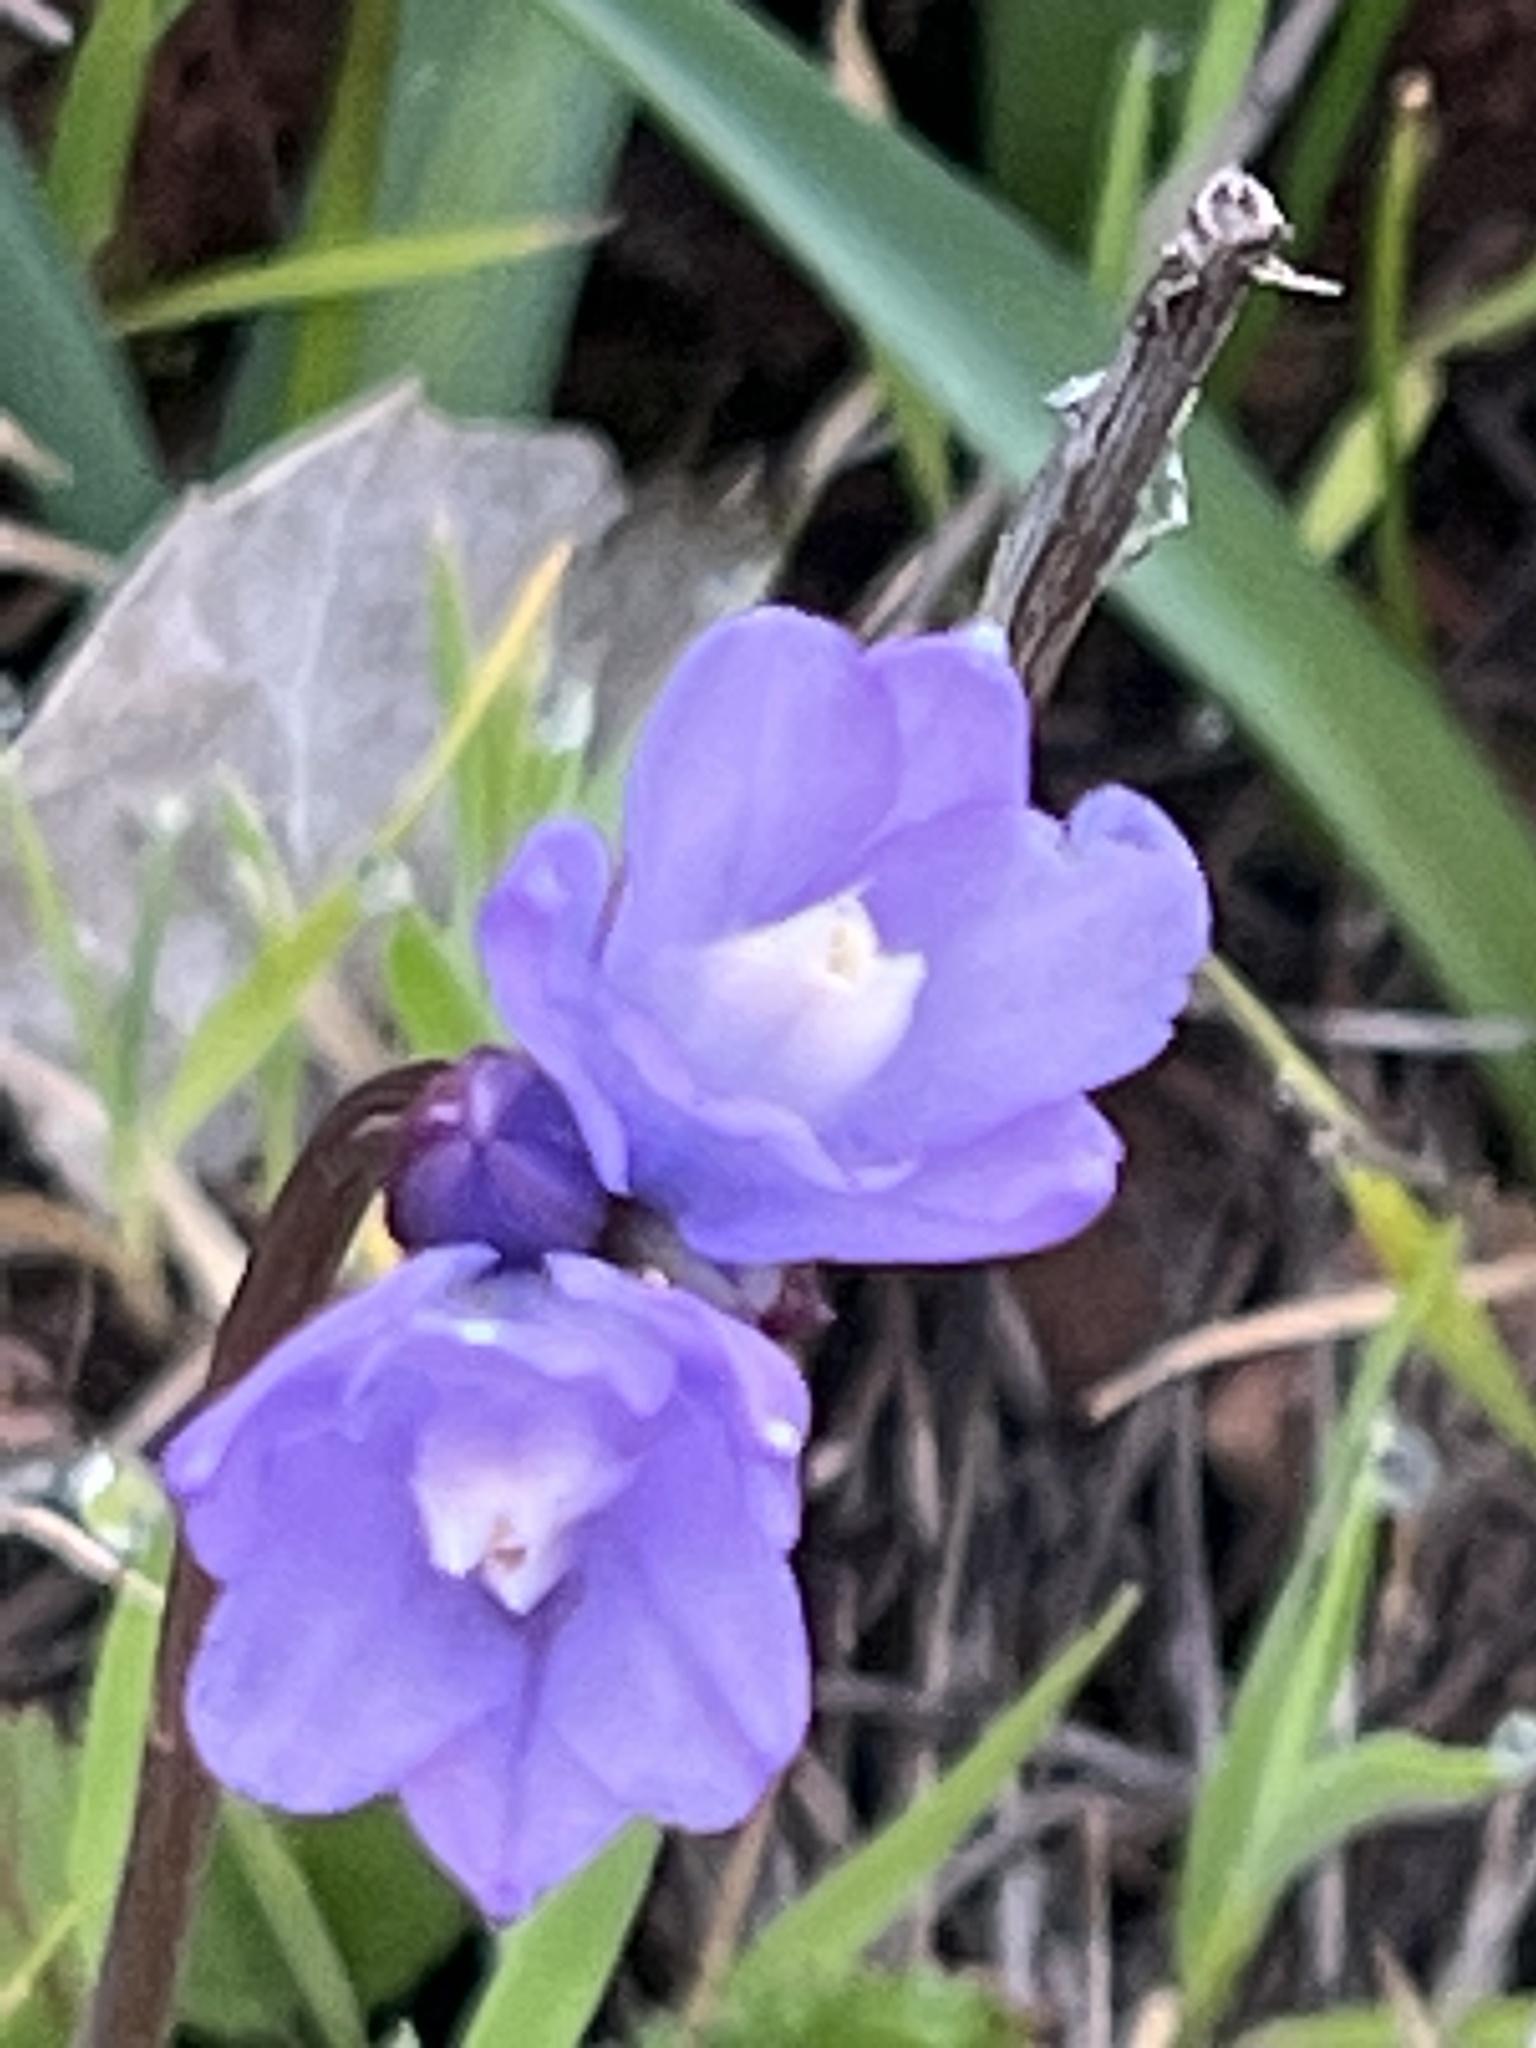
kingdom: Plantae
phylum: Tracheophyta
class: Liliopsida
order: Asparagales
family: Asparagaceae
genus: Dipterostemon
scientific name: Dipterostemon capitatus
